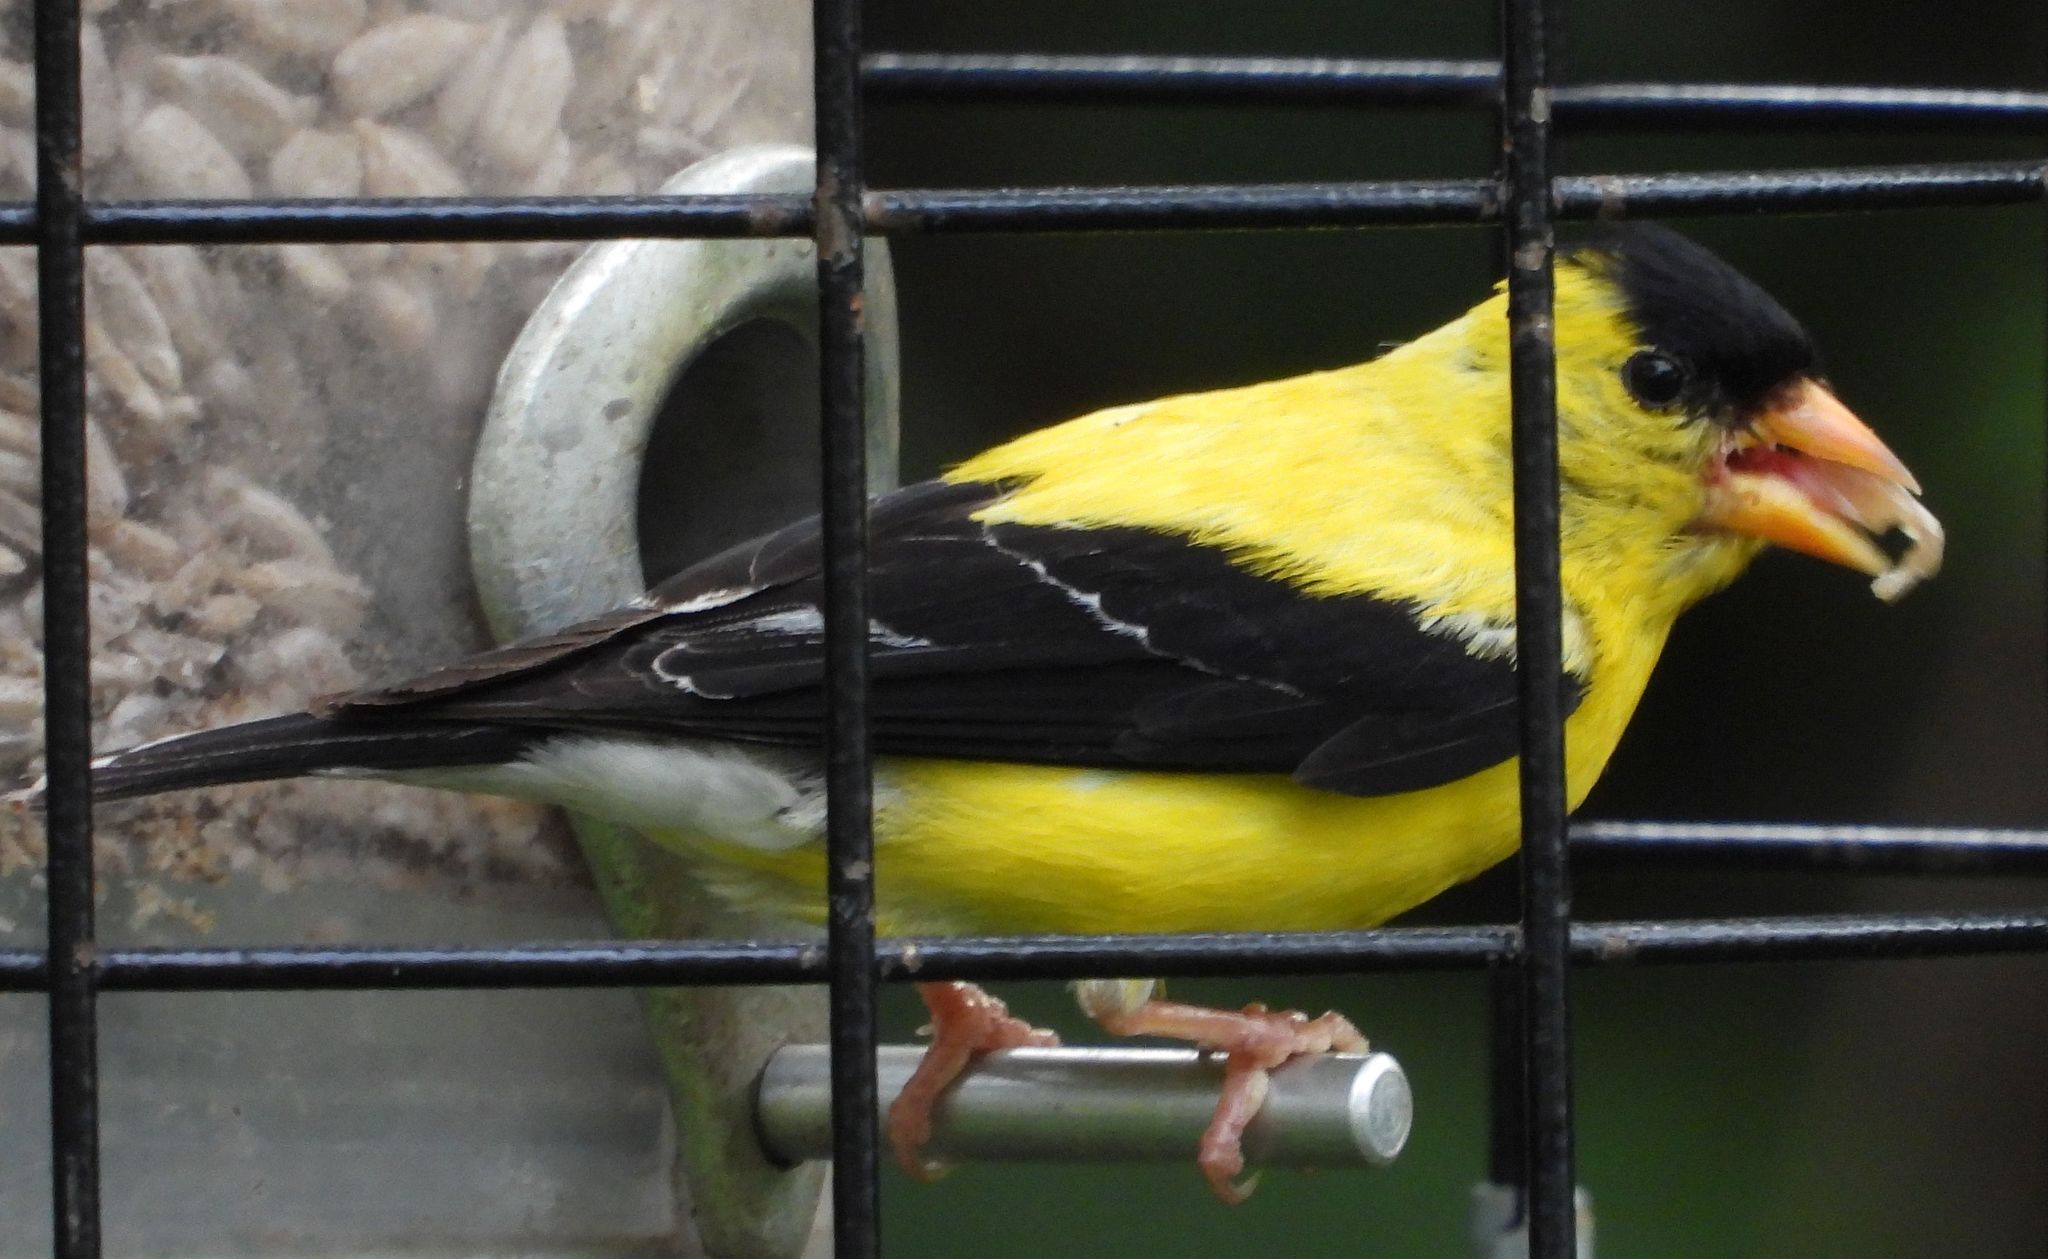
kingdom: Animalia
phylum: Chordata
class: Aves
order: Passeriformes
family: Fringillidae
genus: Spinus
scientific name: Spinus tristis
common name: American goldfinch
